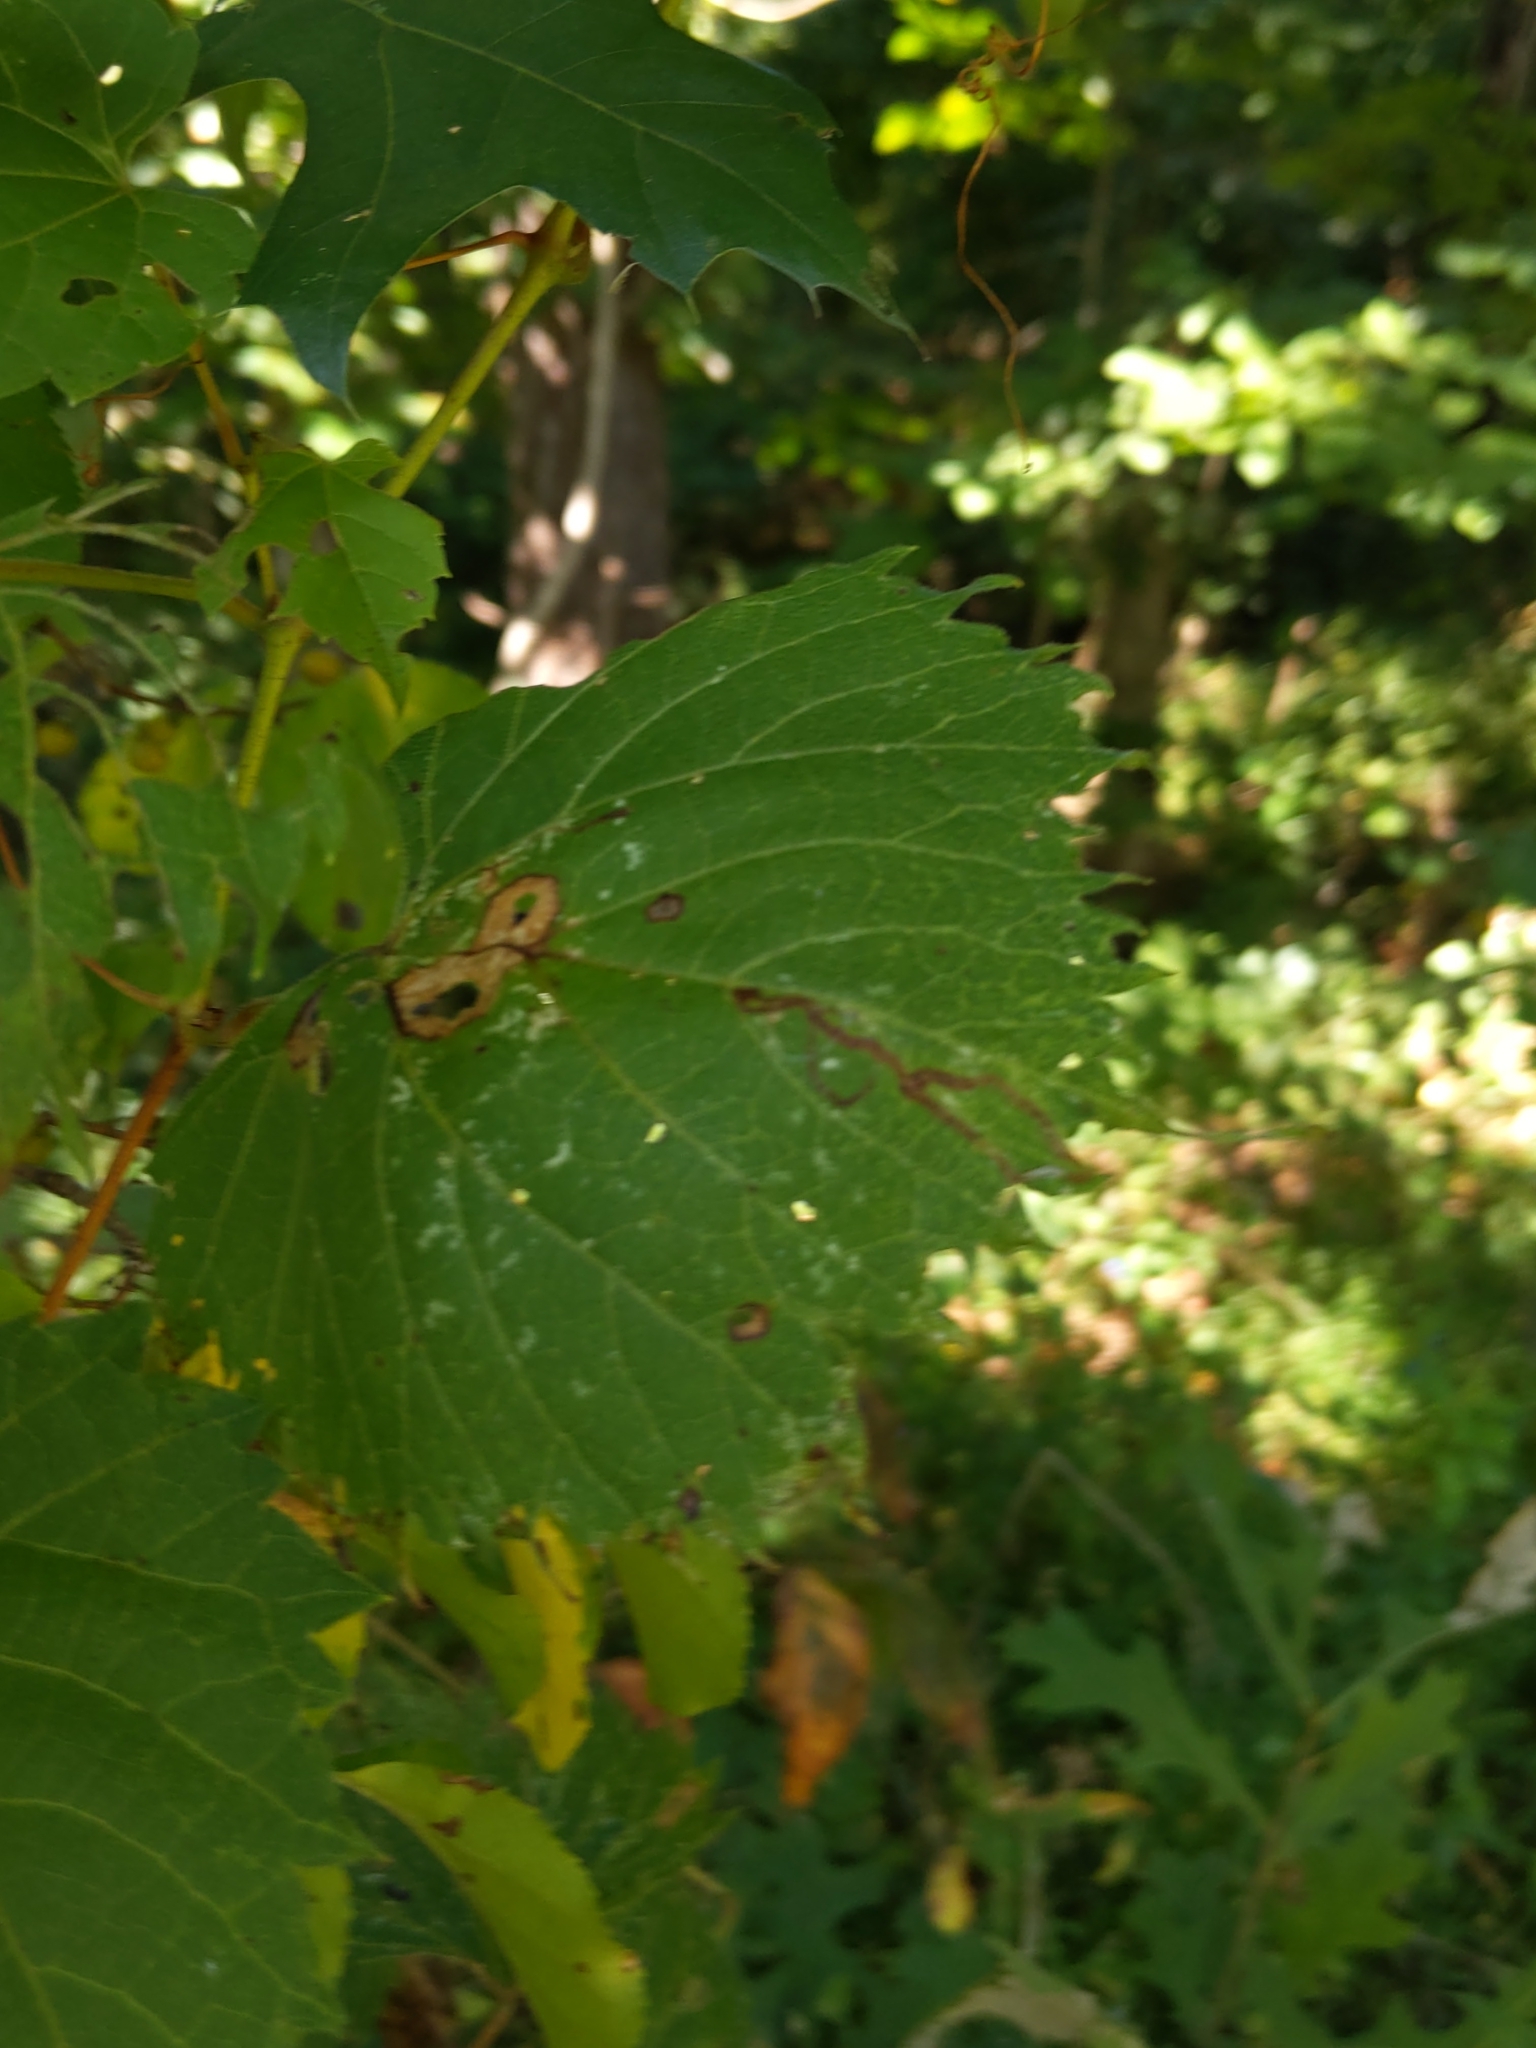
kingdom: Animalia
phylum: Arthropoda
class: Insecta
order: Lepidoptera
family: Gracillariidae
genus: Phyllocnistis
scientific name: Phyllocnistis
